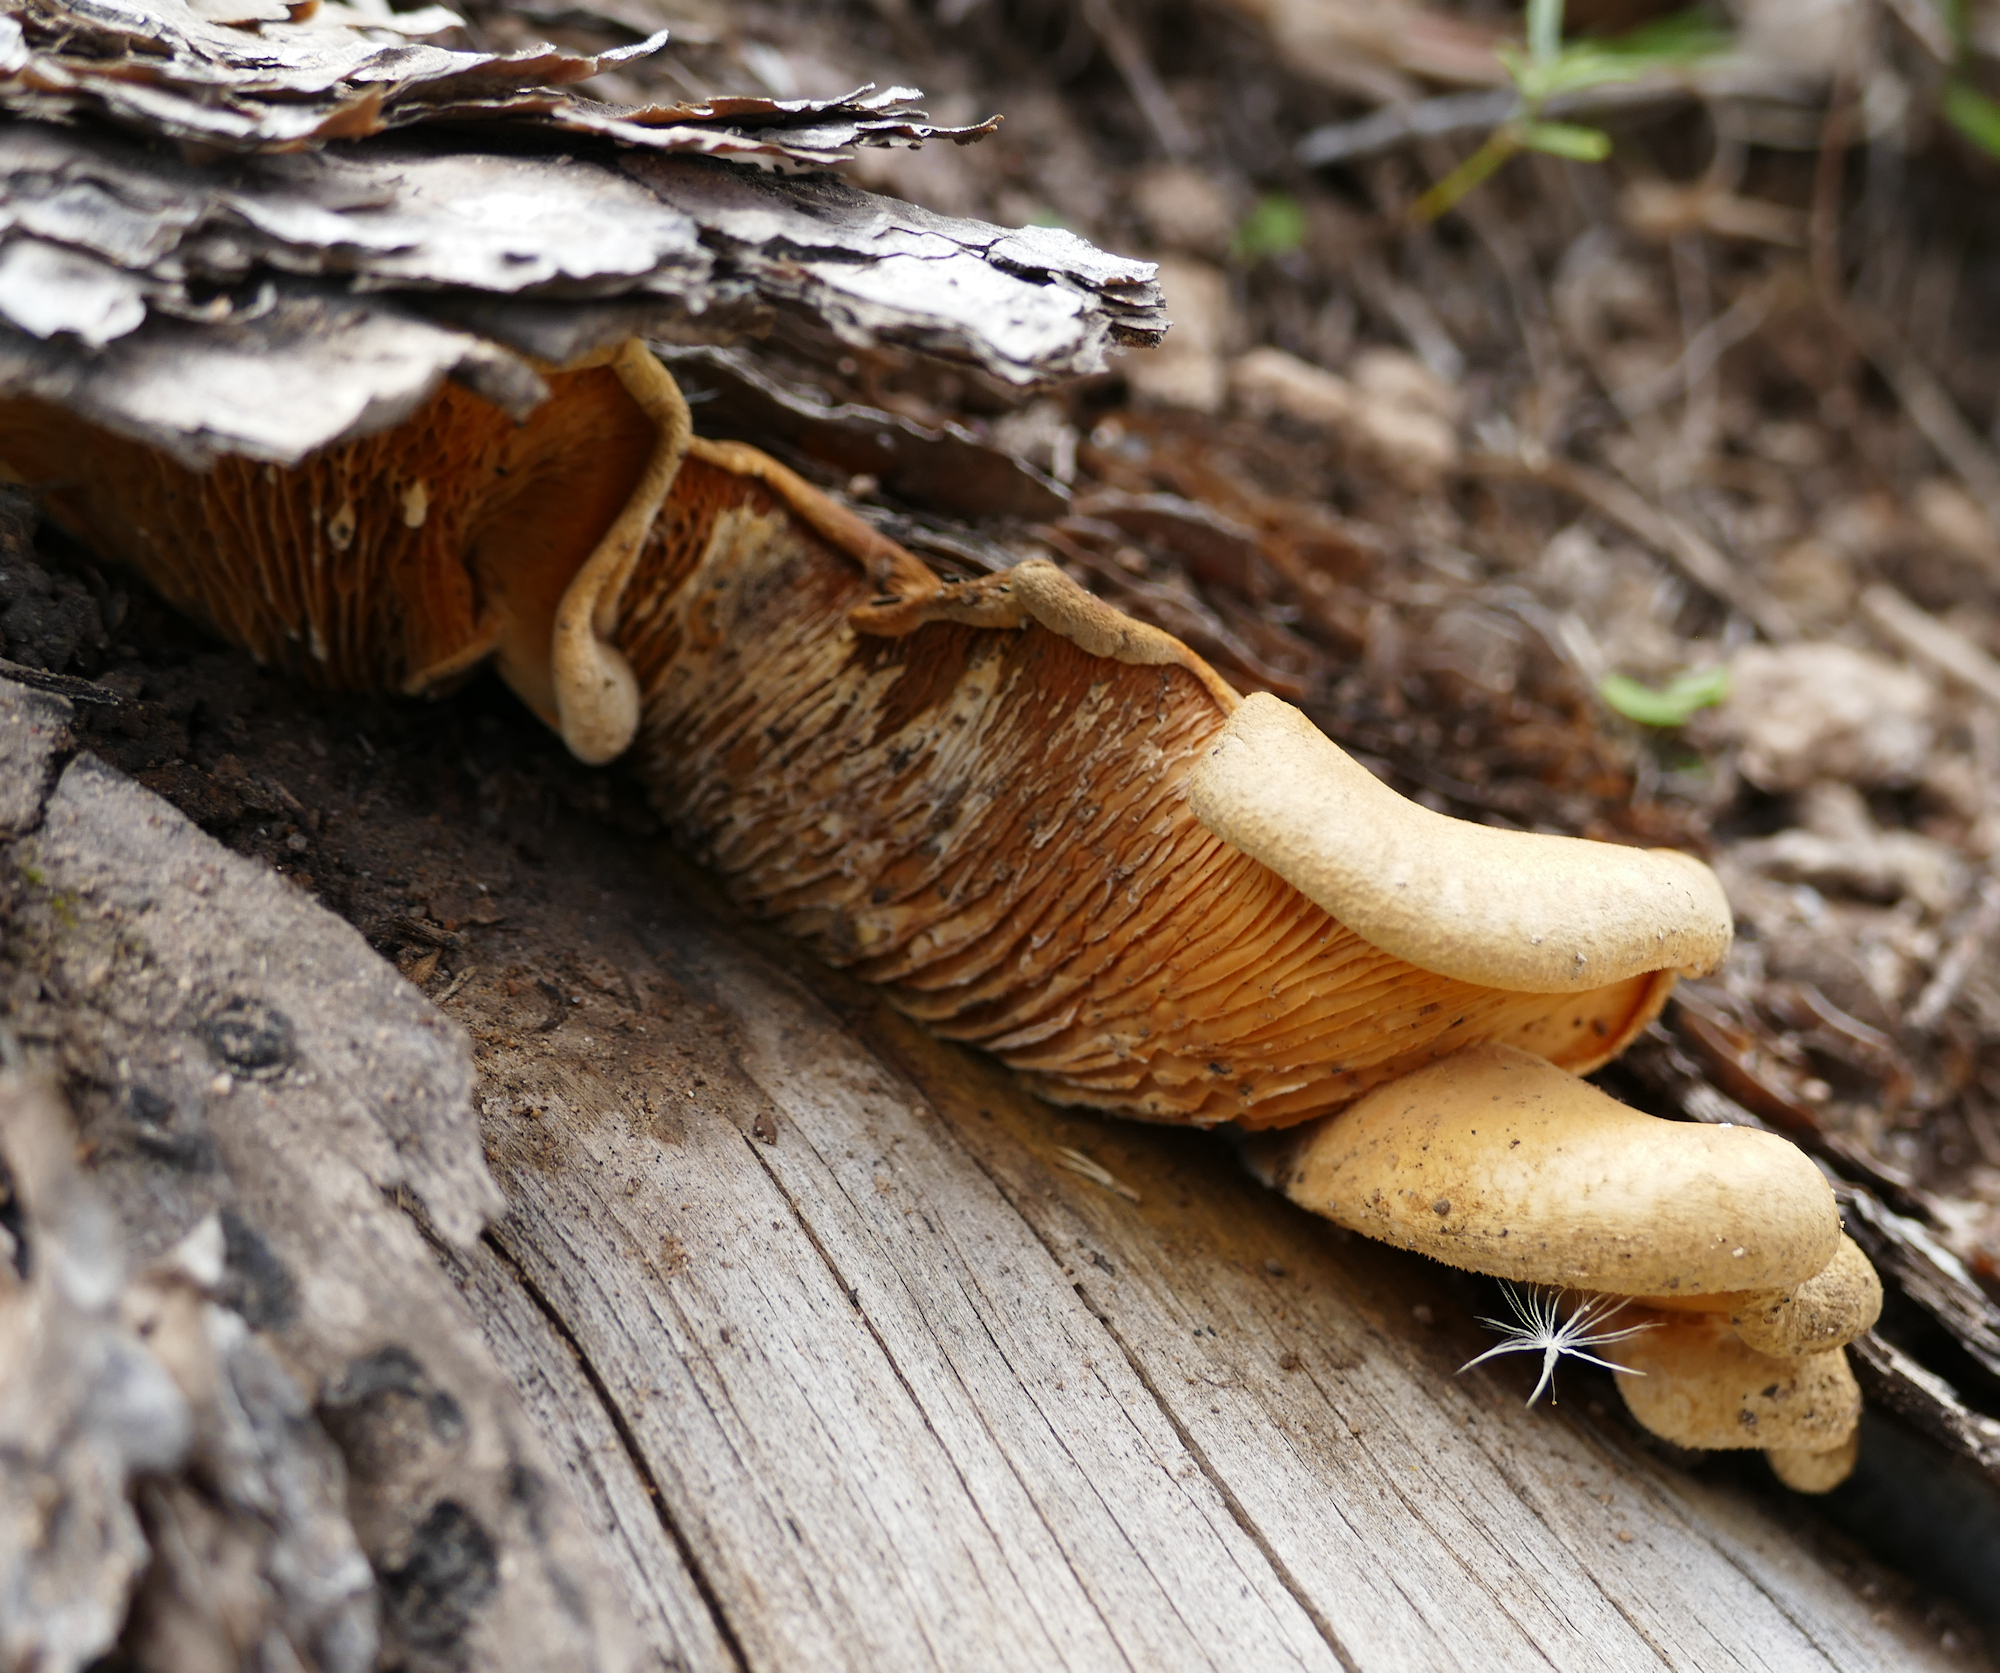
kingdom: Fungi
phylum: Basidiomycota
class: Agaricomycetes
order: Boletales
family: Tapinellaceae
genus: Tapinella
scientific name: Tapinella panuoides
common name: Oyster rollrim
